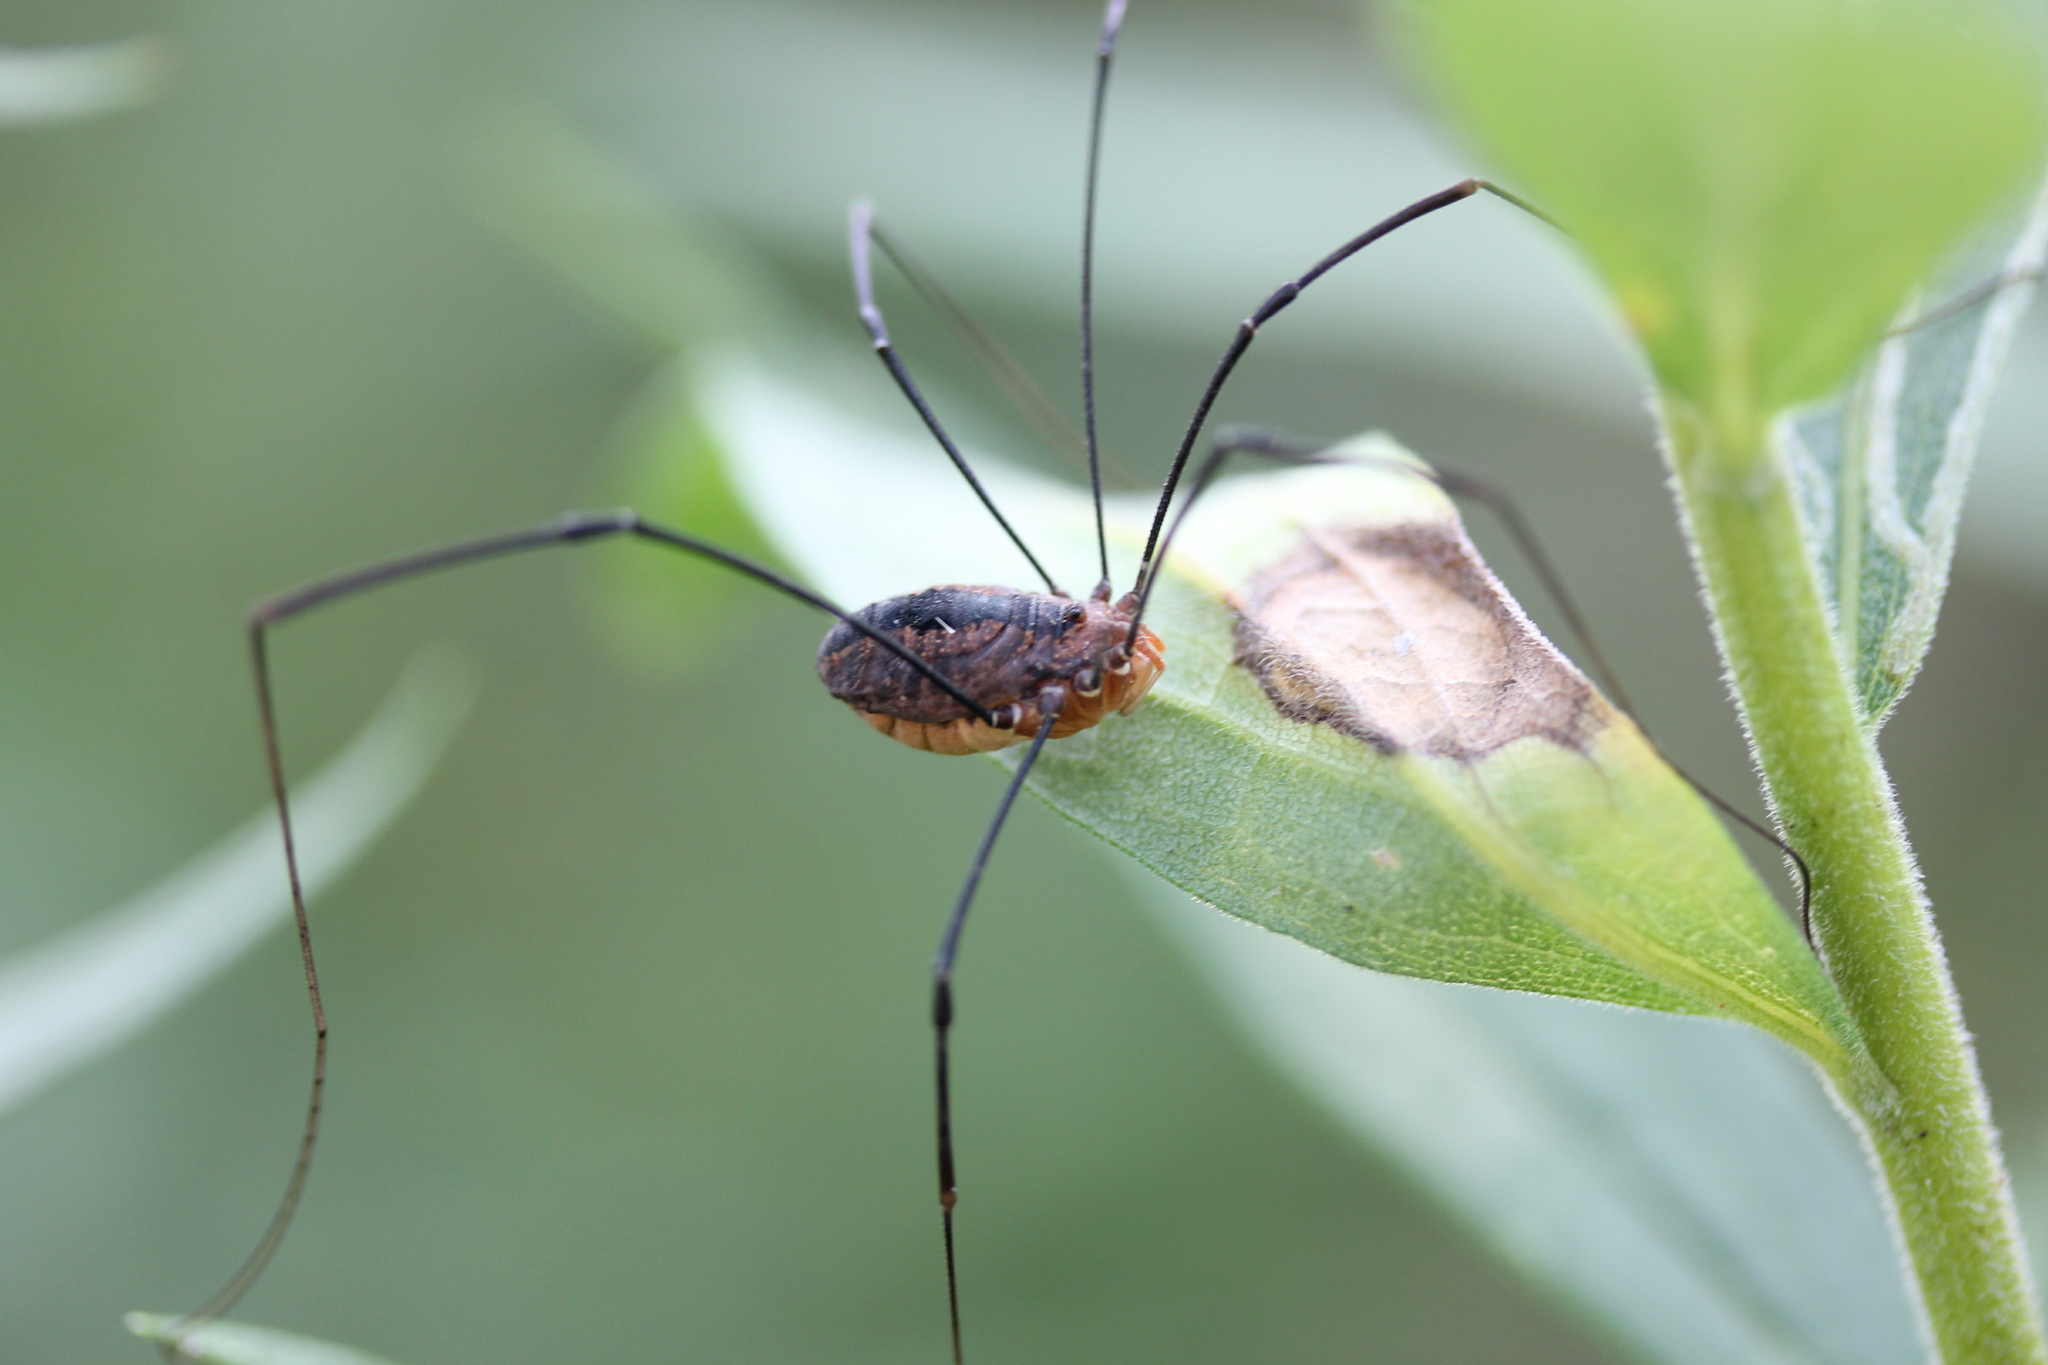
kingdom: Animalia
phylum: Arthropoda
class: Arachnida
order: Opiliones
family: Sclerosomatidae
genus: Leiobunum
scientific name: Leiobunum vittatum
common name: Eastern harvestman
